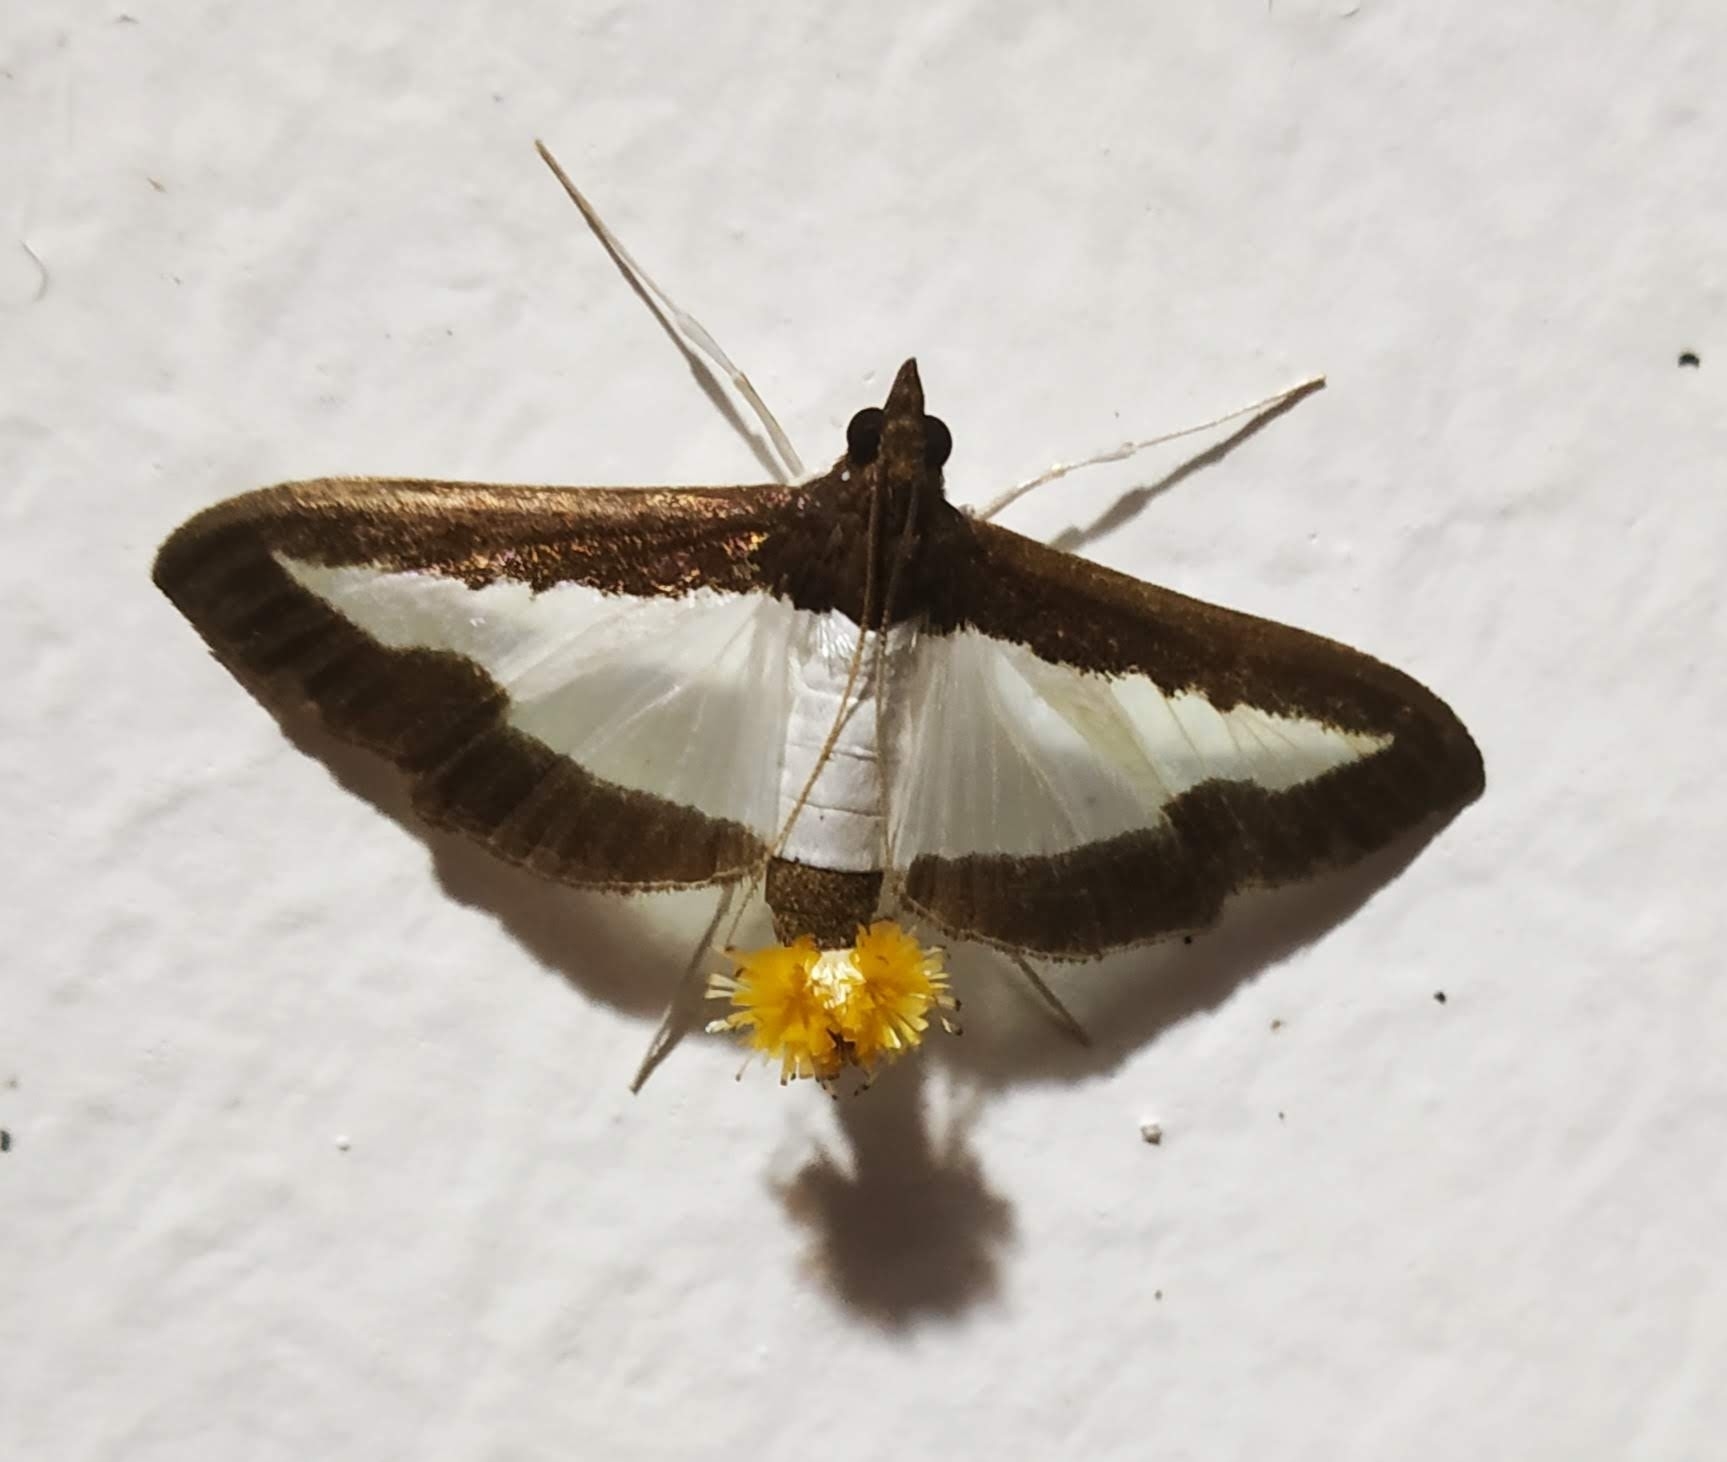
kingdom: Animalia
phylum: Arthropoda
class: Insecta
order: Lepidoptera
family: Crambidae
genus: Diaphania
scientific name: Diaphania indica
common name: Cucumber moth
